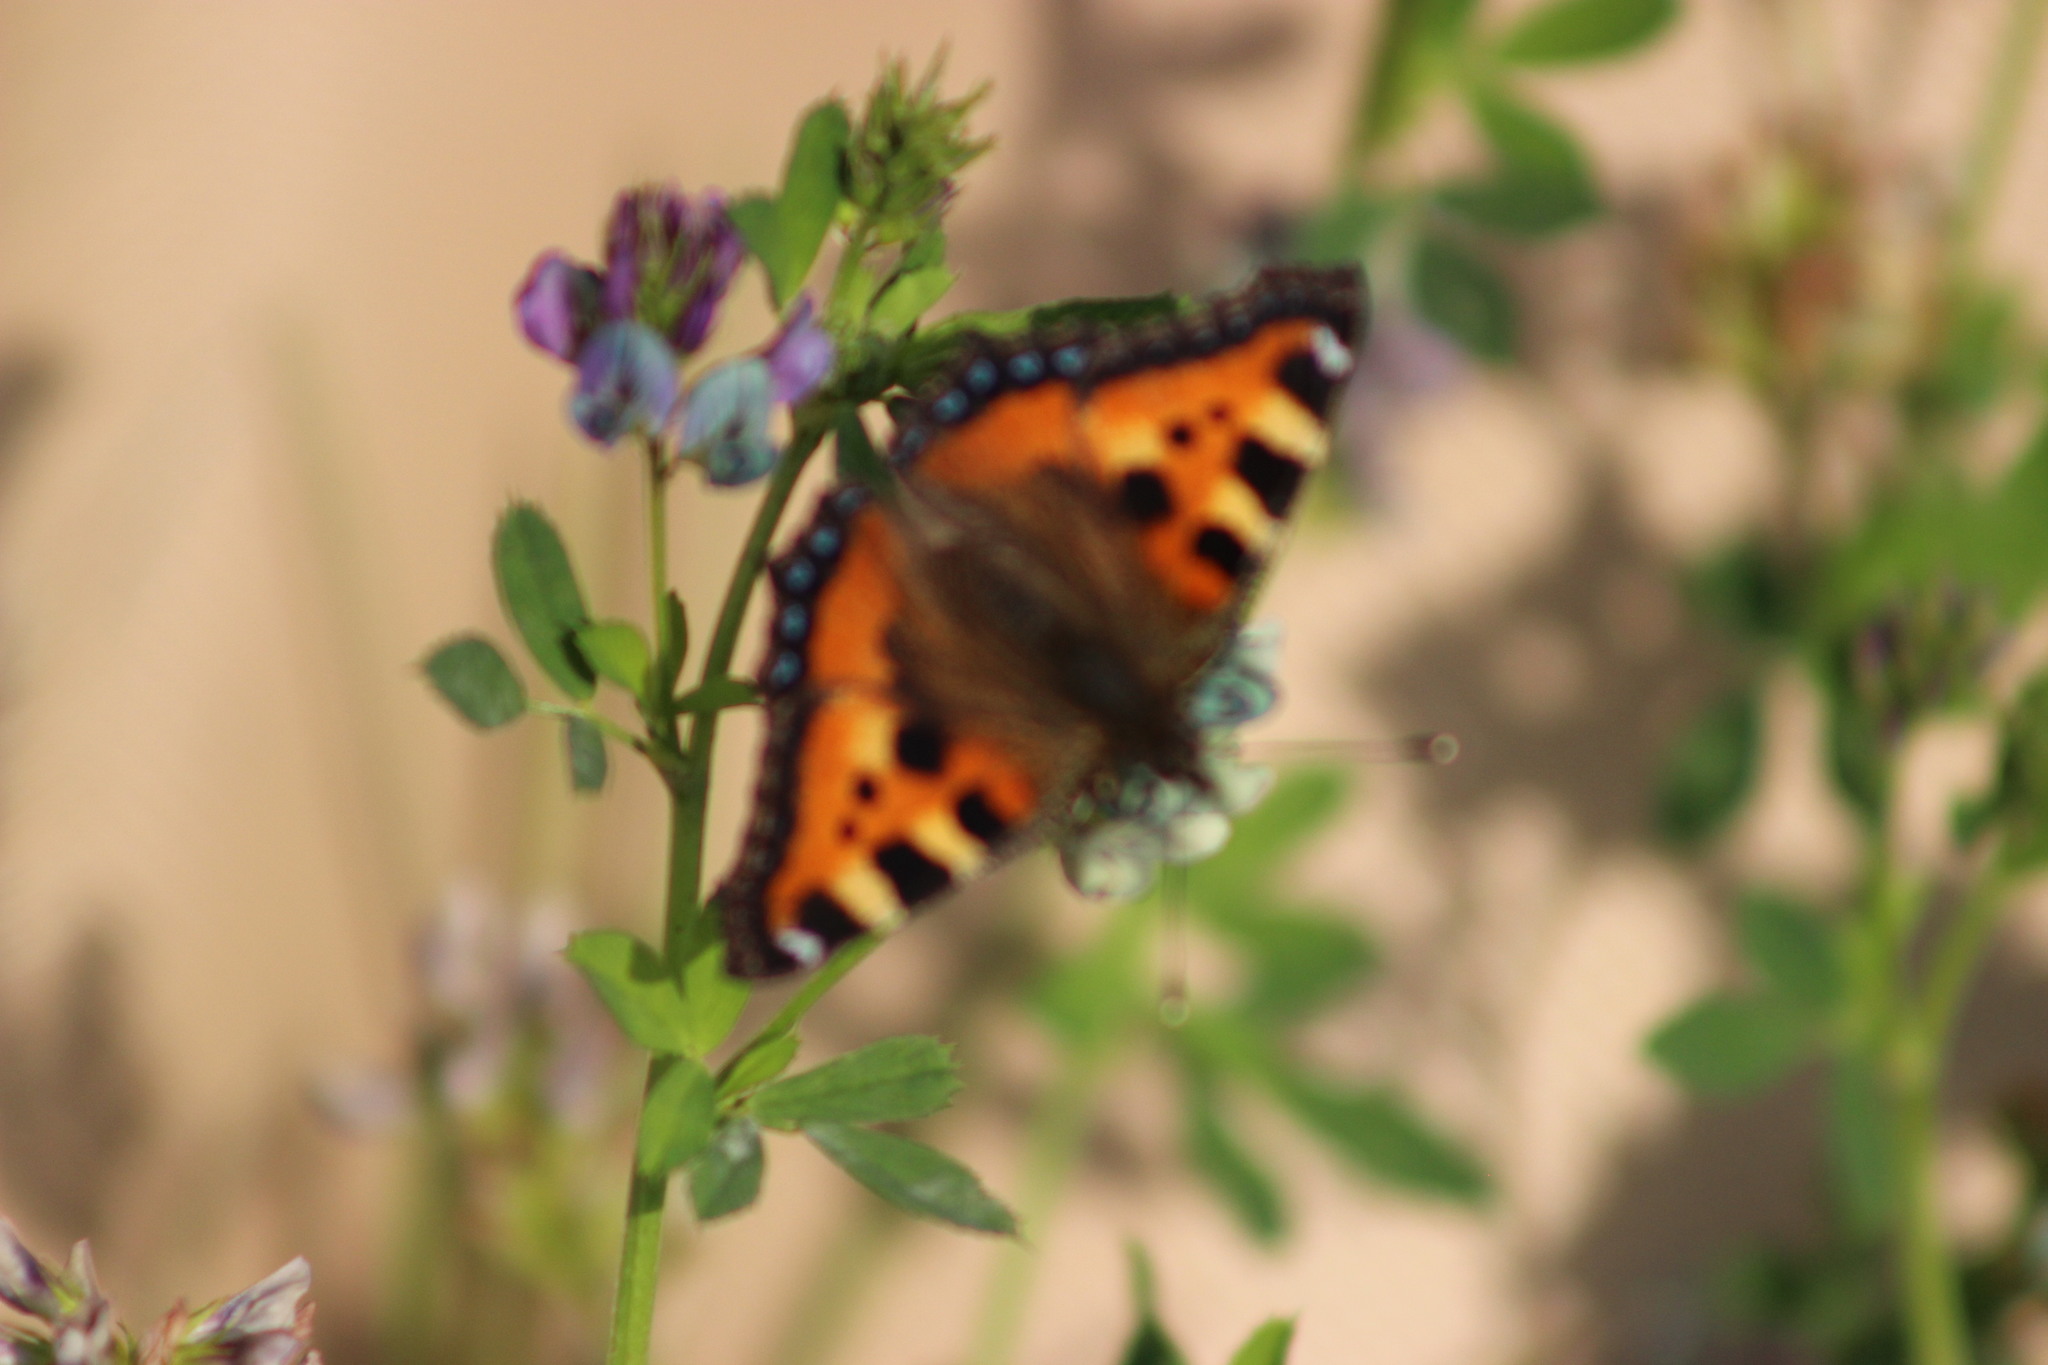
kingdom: Animalia
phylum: Arthropoda
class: Insecta
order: Lepidoptera
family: Nymphalidae
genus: Aglais
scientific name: Aglais urticae
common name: Small tortoiseshell
